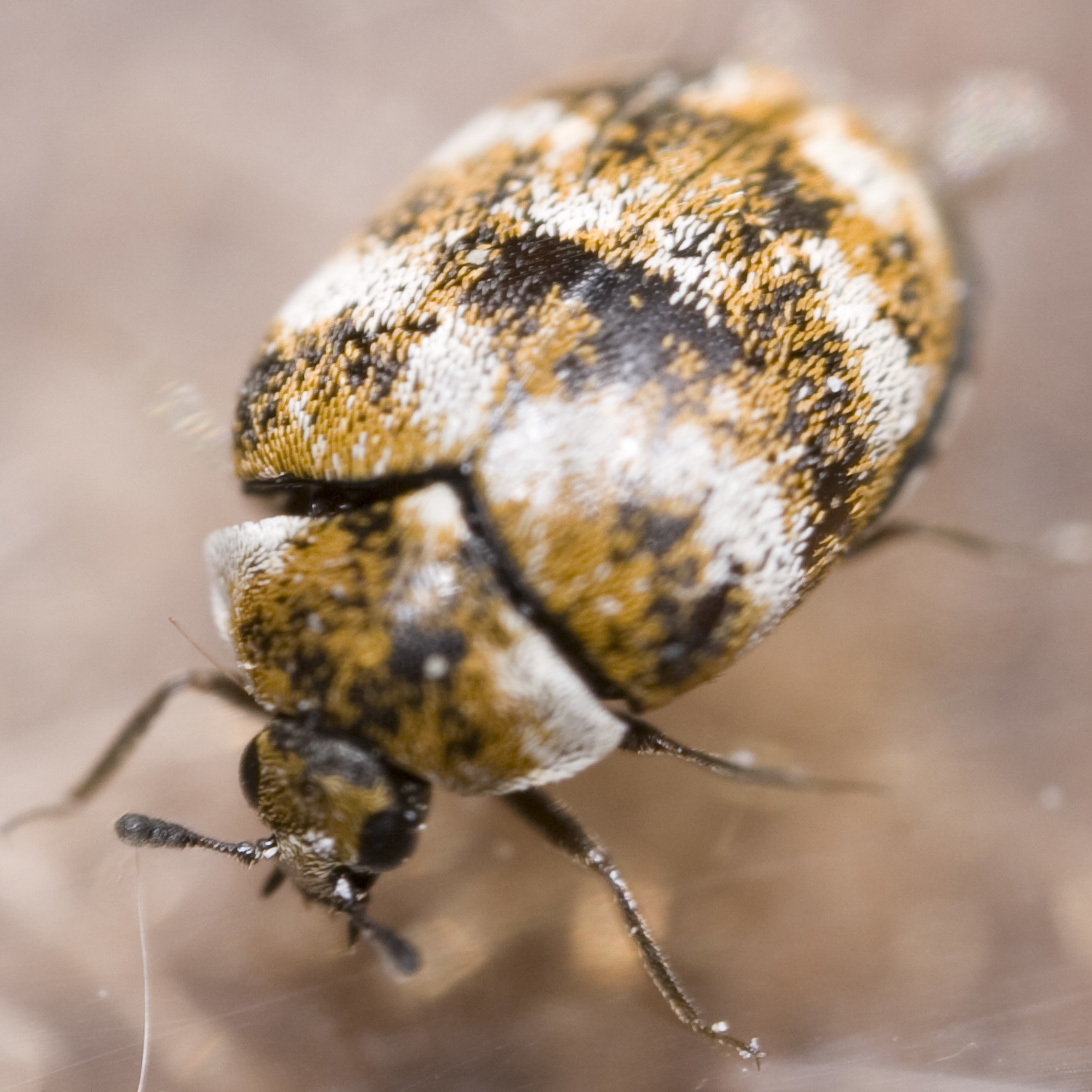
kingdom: Animalia
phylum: Arthropoda
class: Insecta
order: Coleoptera
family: Dermestidae
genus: Anthrenus
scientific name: Anthrenus verbasci
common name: Varied carpet beetle
